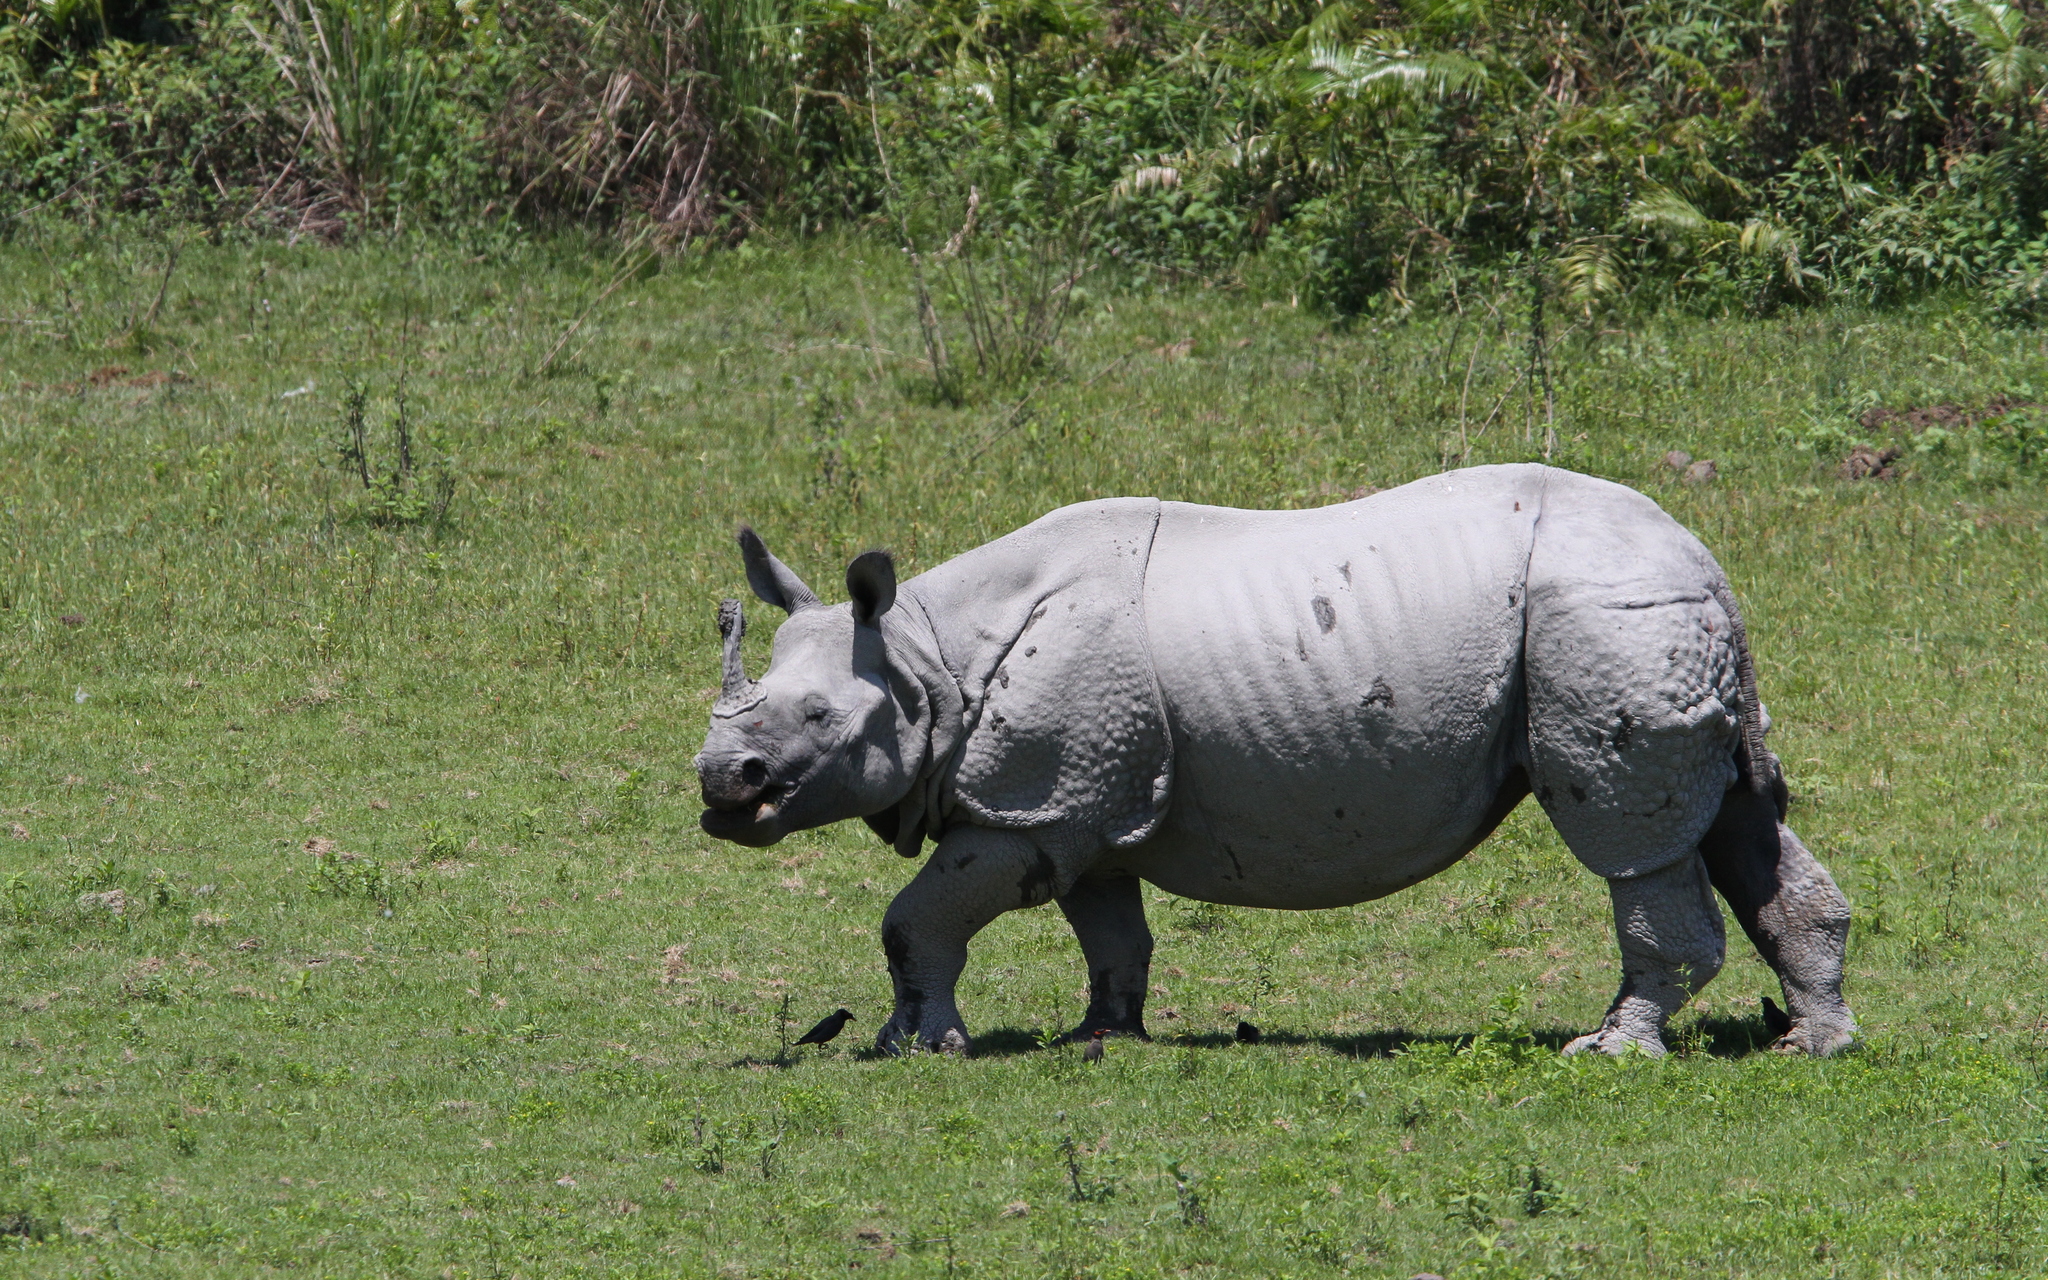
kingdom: Animalia
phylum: Chordata
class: Mammalia
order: Perissodactyla
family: Rhinocerotidae
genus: Rhinoceros
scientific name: Rhinoceros unicornis
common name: Indian rhinoceros
